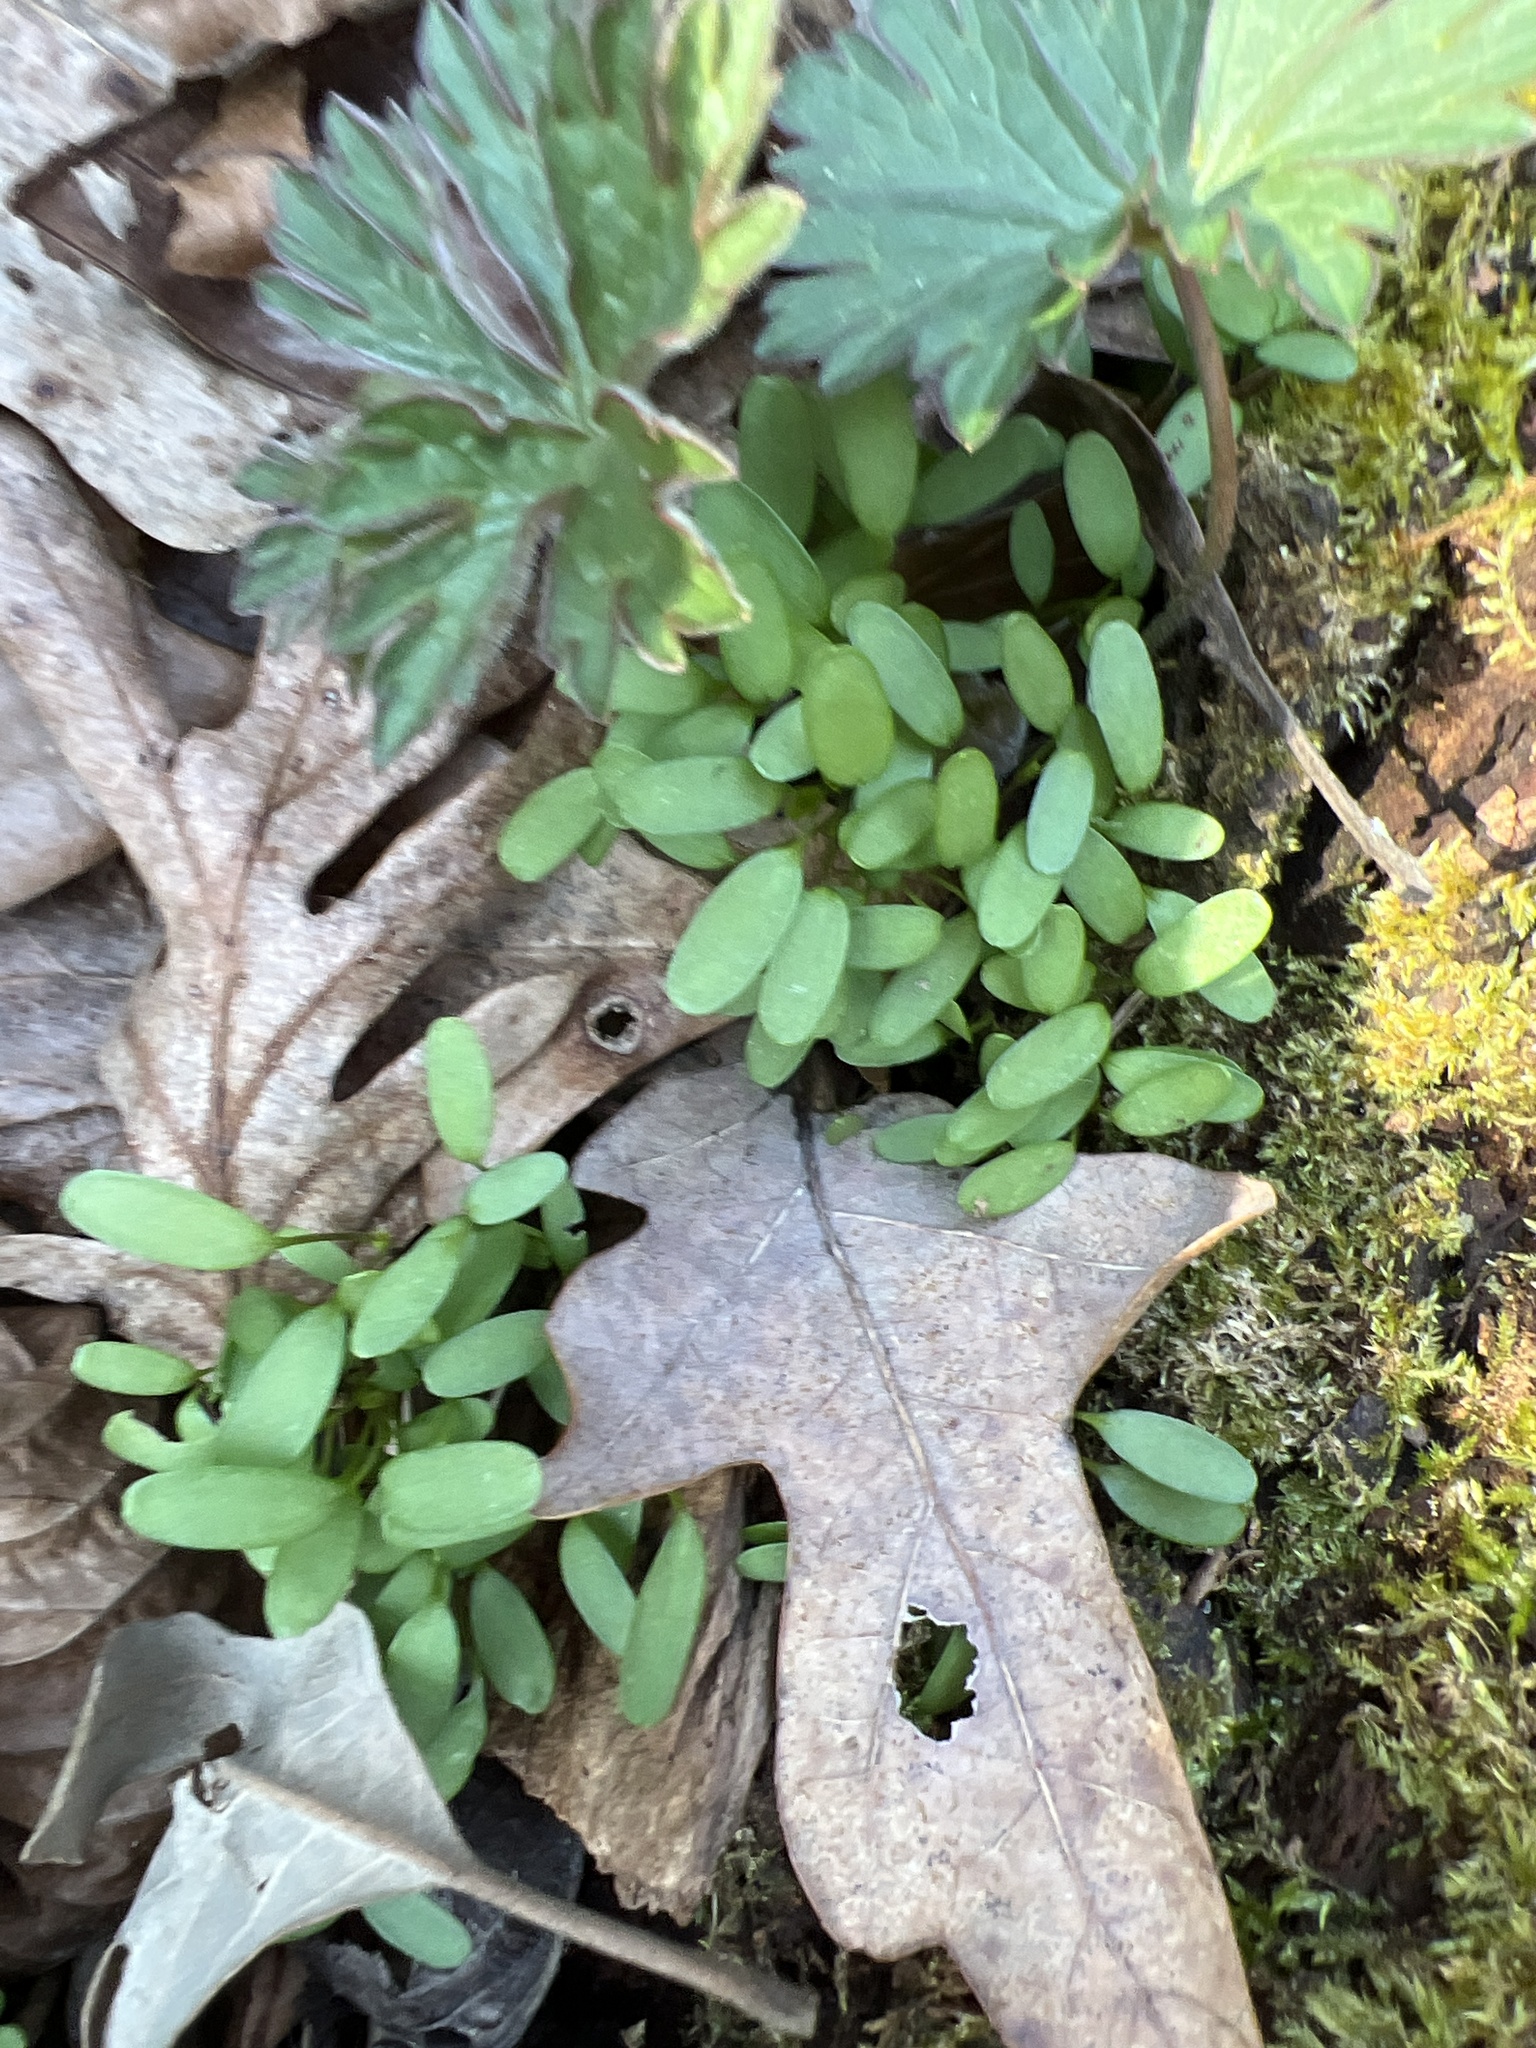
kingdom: Plantae
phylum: Tracheophyta
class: Magnoliopsida
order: Brassicales
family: Brassicaceae
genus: Alliaria
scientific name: Alliaria petiolata
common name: Garlic mustard
